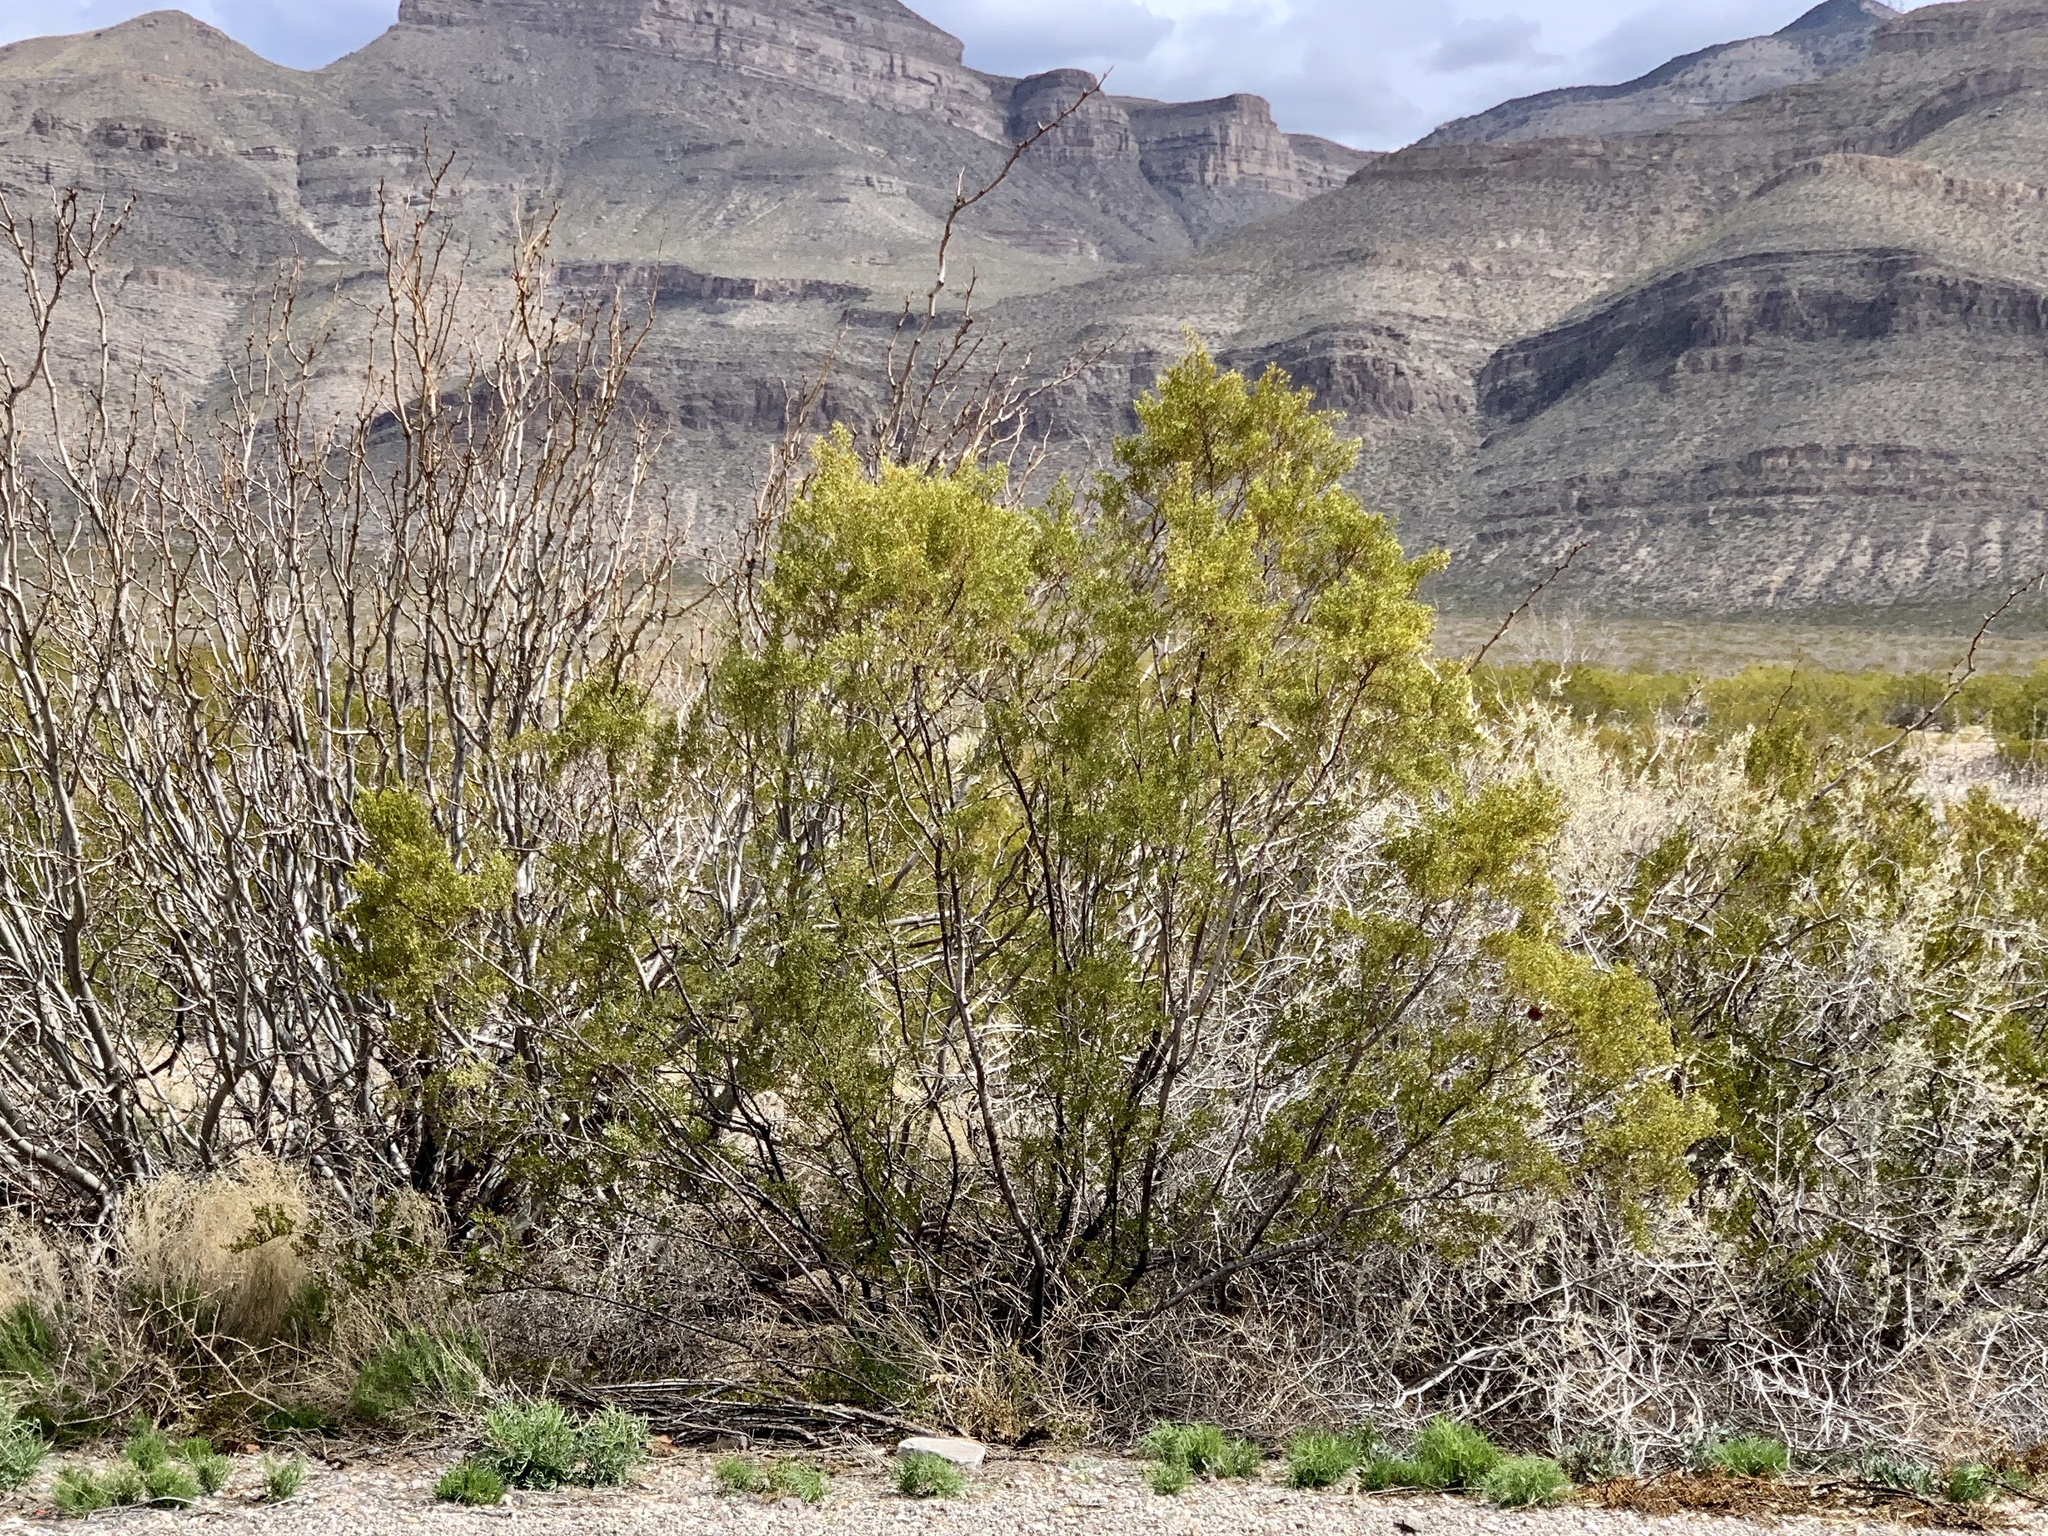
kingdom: Plantae
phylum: Tracheophyta
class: Magnoliopsida
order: Zygophyllales
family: Zygophyllaceae
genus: Larrea
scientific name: Larrea tridentata
